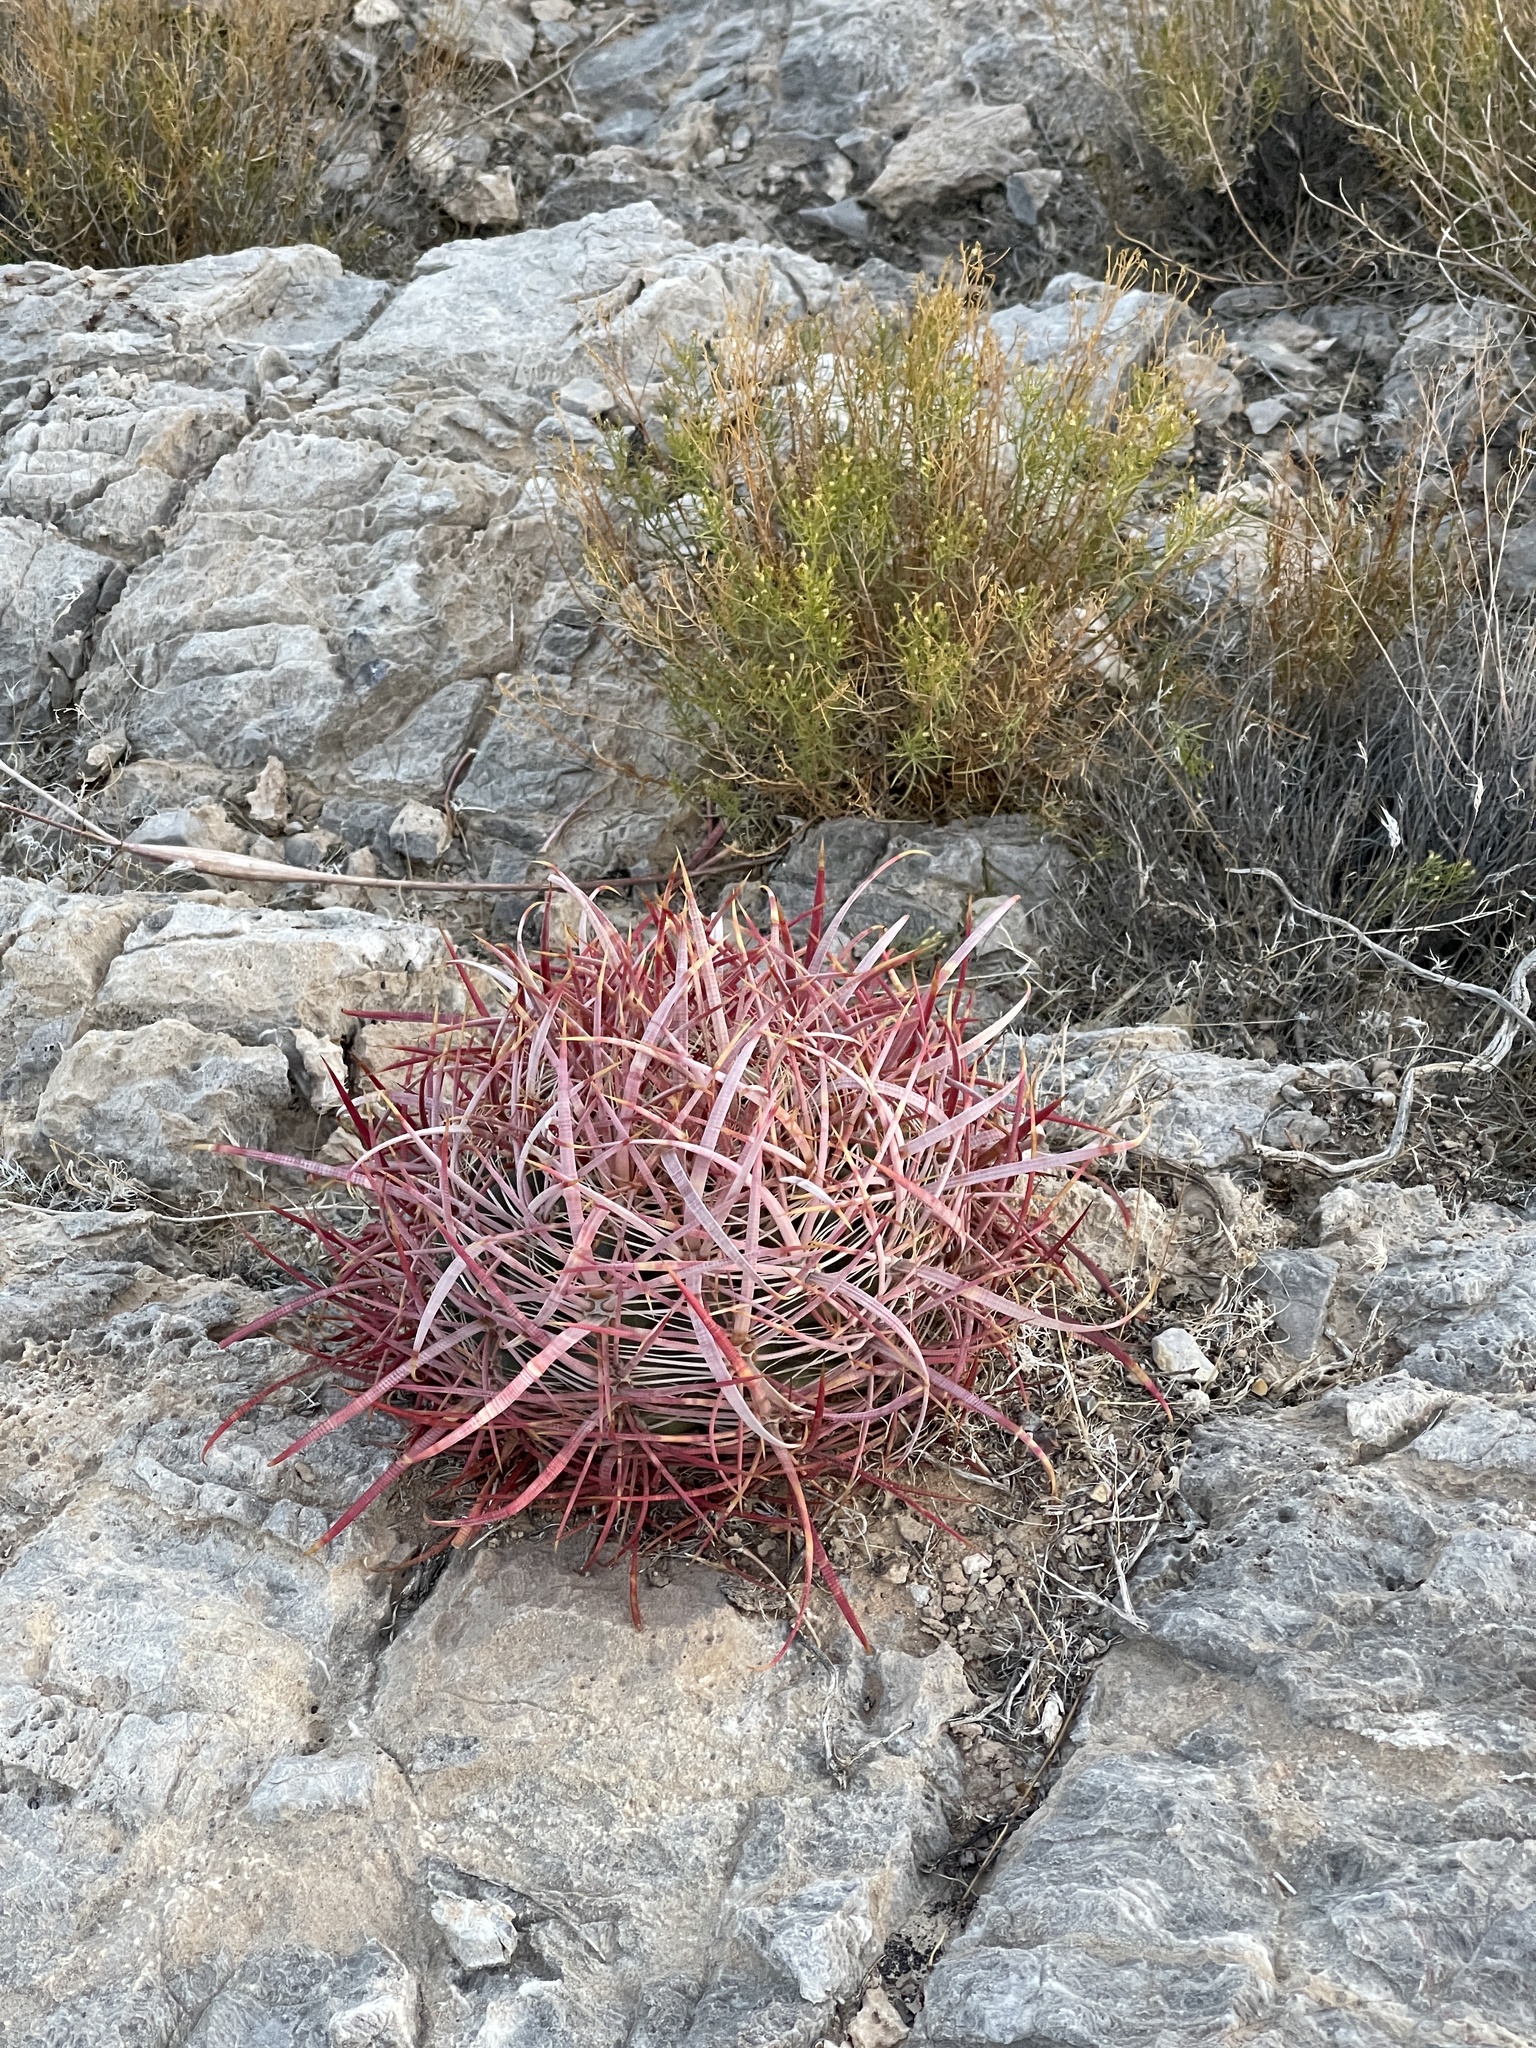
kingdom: Plantae
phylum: Tracheophyta
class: Magnoliopsida
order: Caryophyllales
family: Cactaceae
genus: Ferocactus
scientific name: Ferocactus cylindraceus
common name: California barrel cactus
